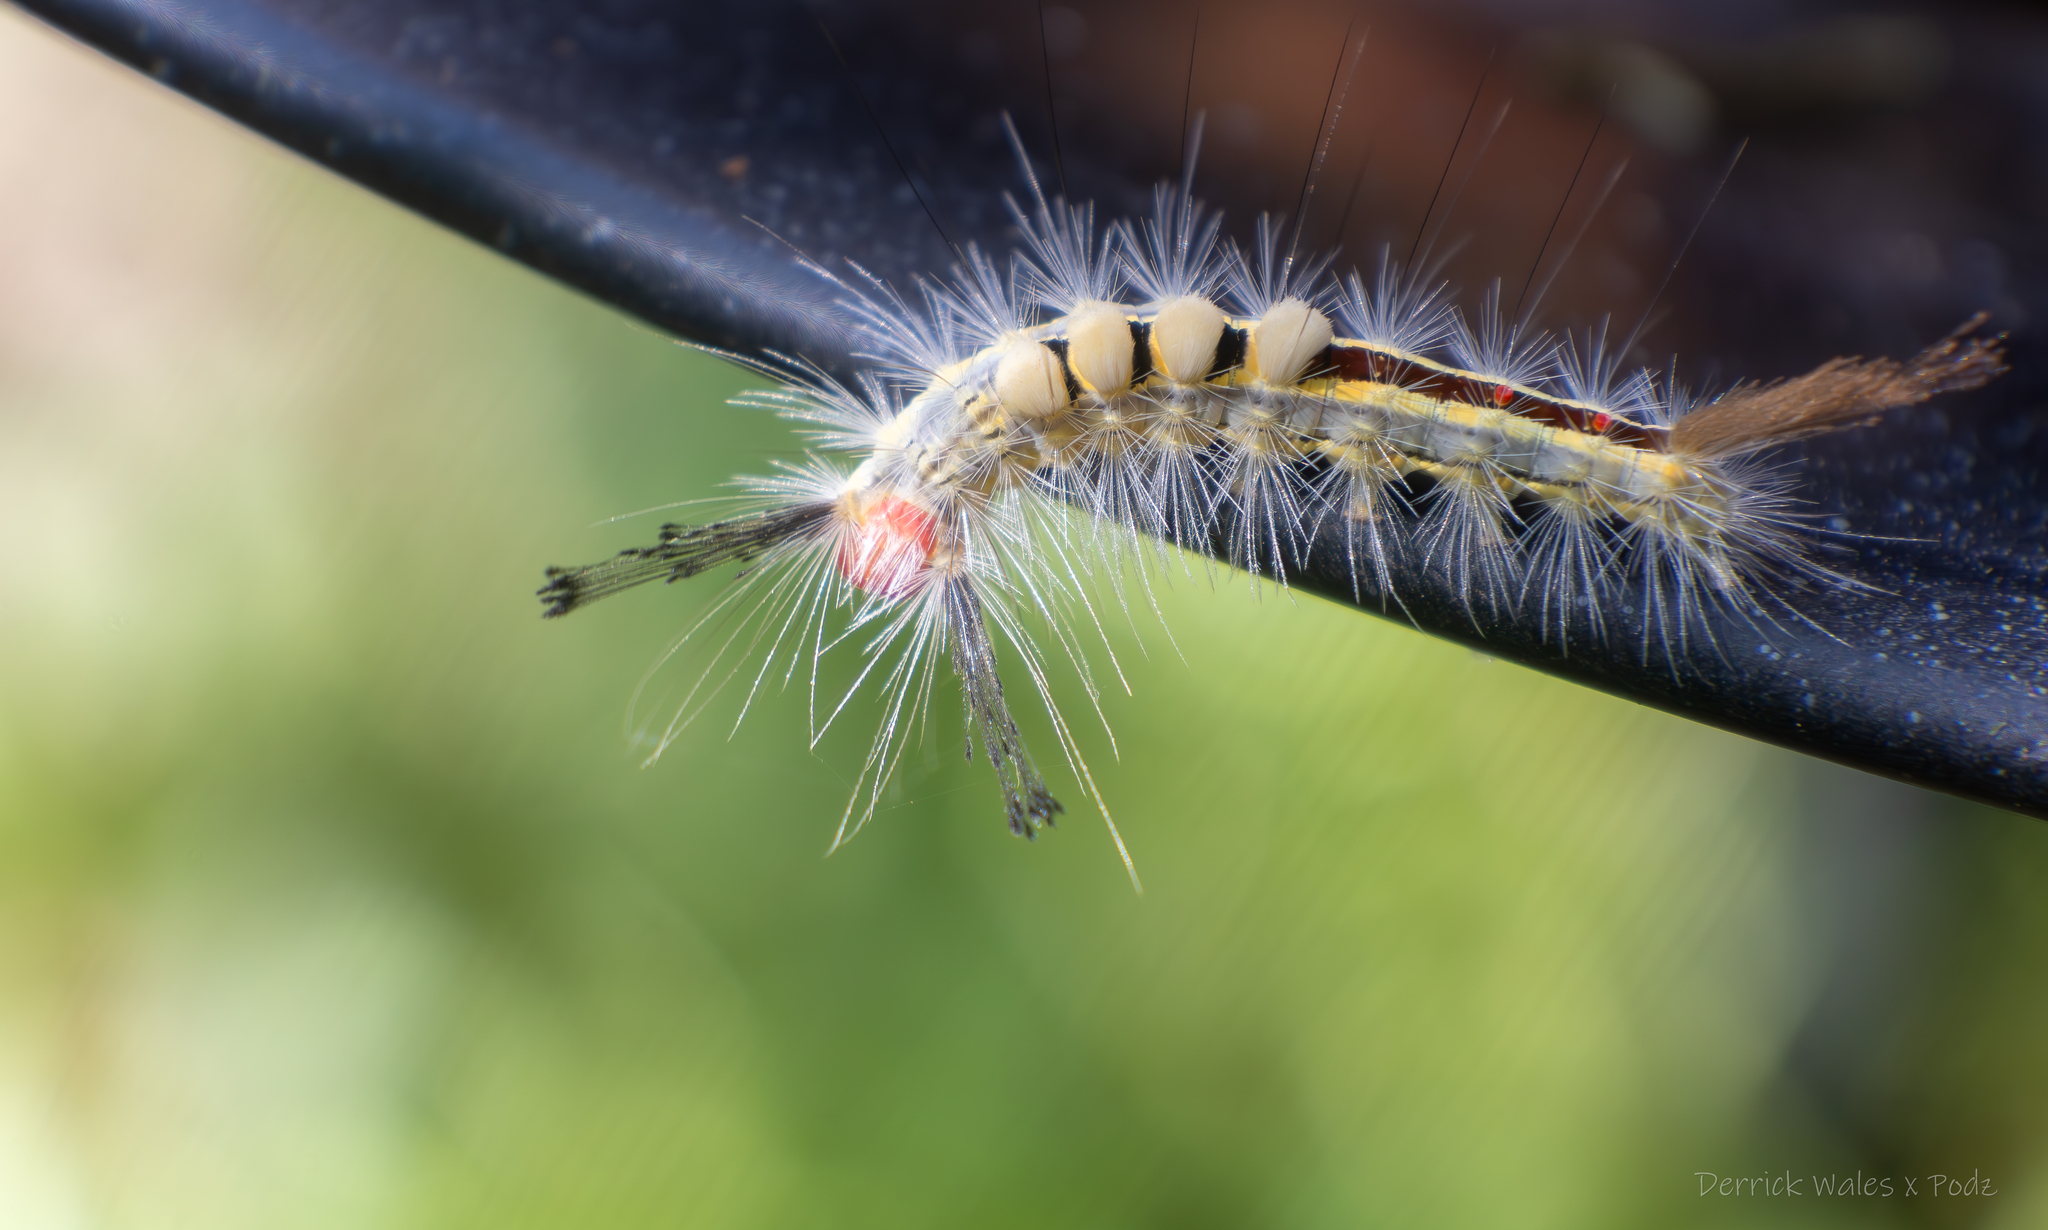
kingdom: Animalia
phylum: Arthropoda
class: Insecta
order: Lepidoptera
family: Erebidae
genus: Orgyia
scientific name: Orgyia leucostigma
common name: White-marked tussock moth
